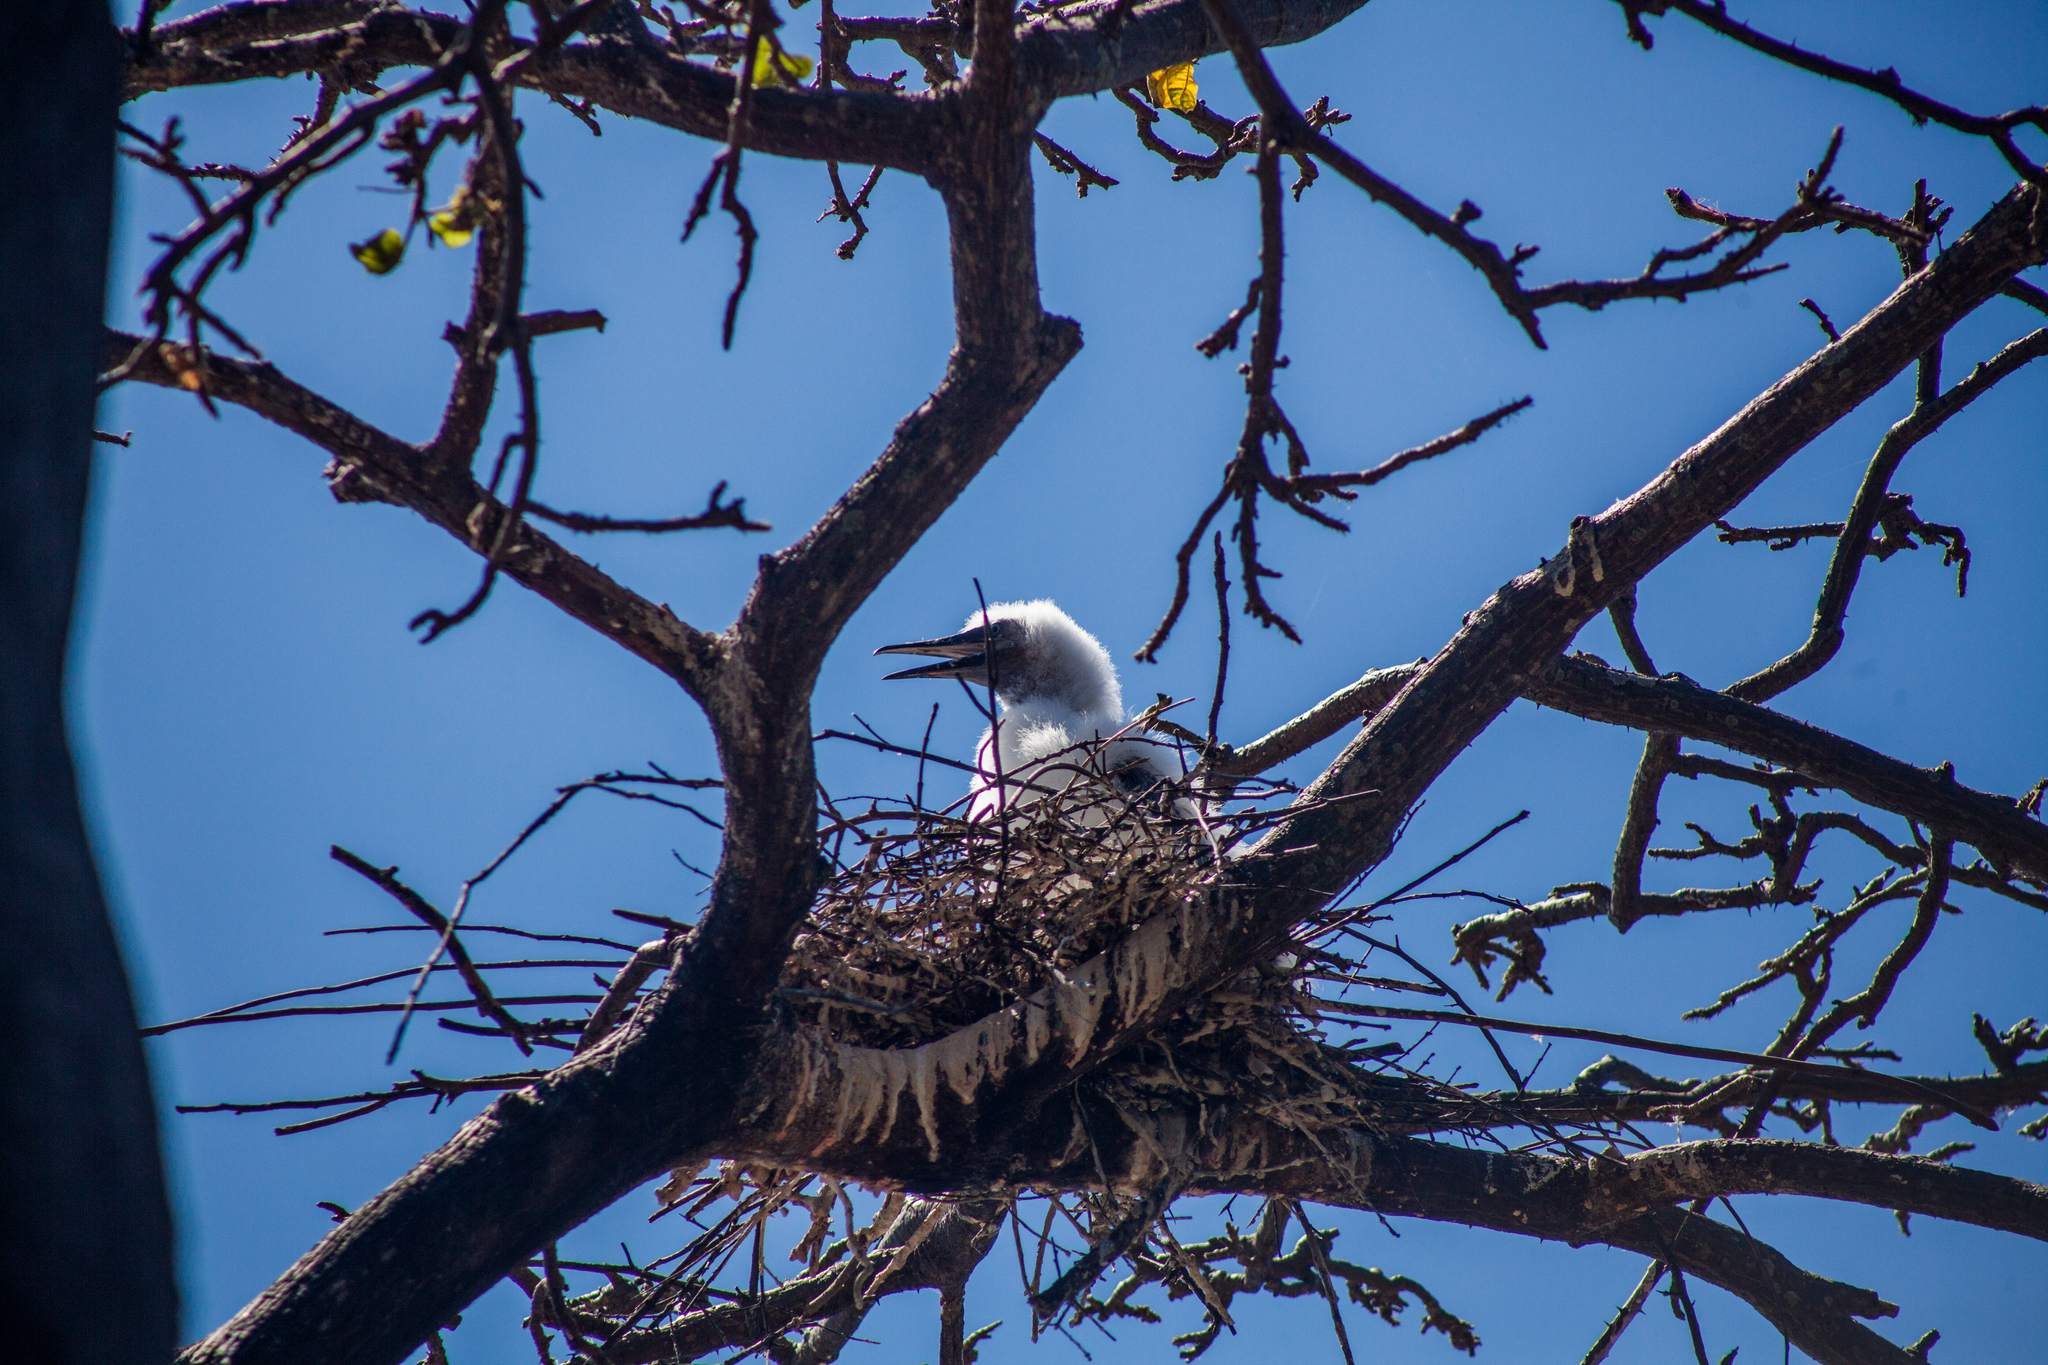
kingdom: Animalia
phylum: Chordata
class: Aves
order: Suliformes
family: Sulidae
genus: Sula
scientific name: Sula sula
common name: Red-footed booby
